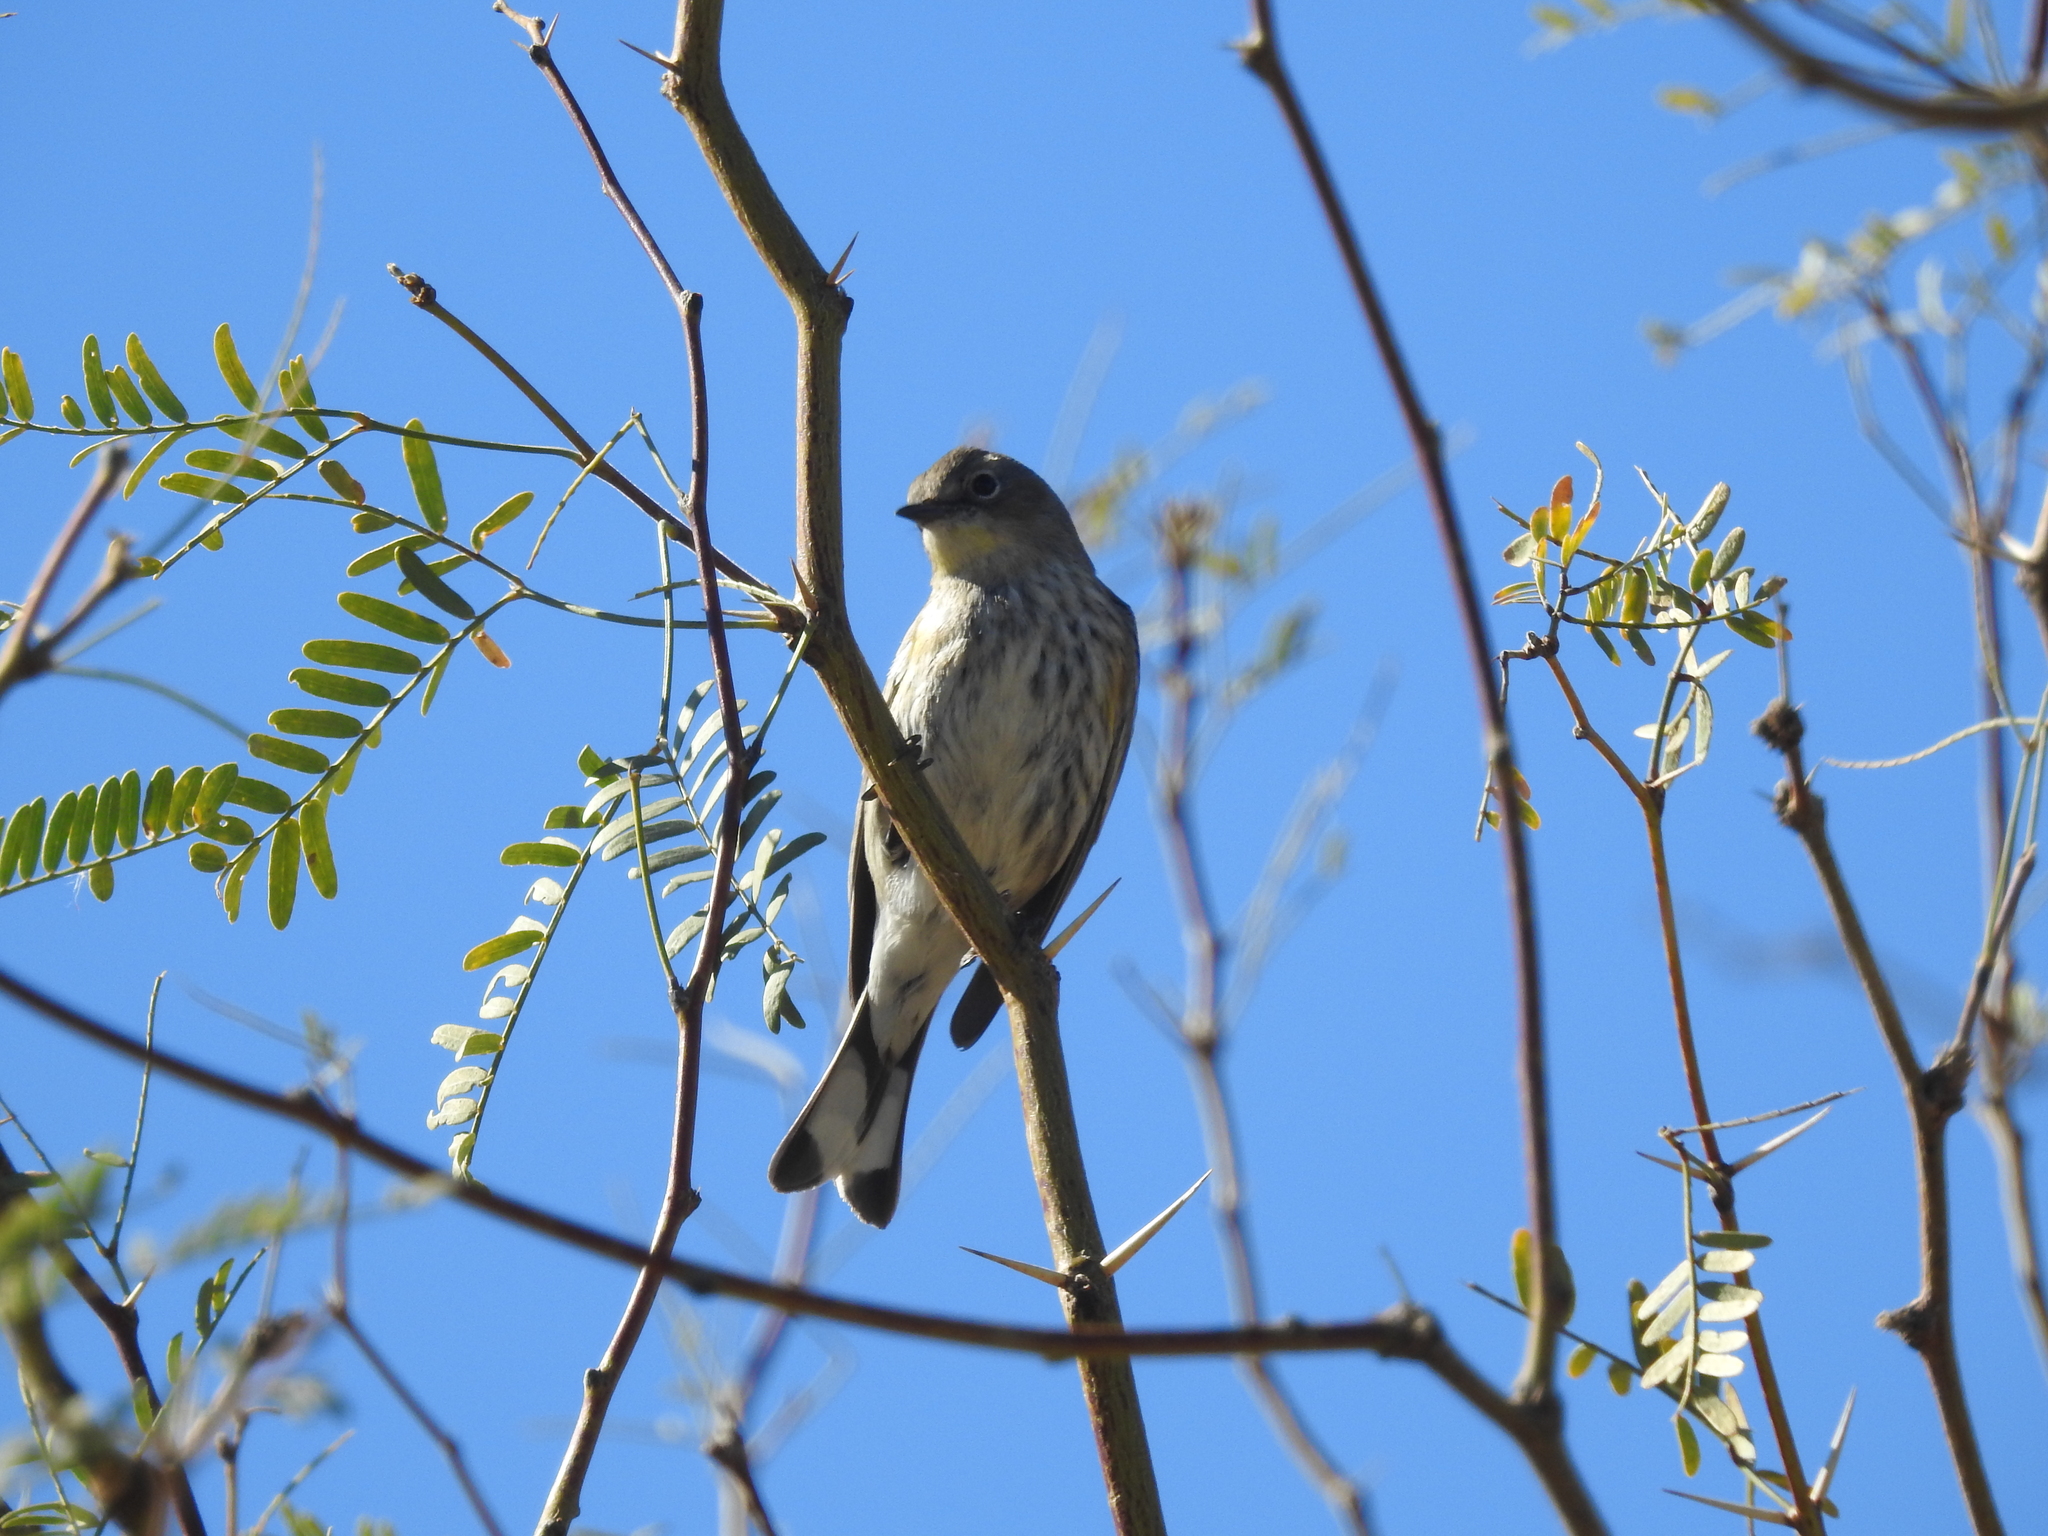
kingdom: Animalia
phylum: Chordata
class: Aves
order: Passeriformes
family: Parulidae
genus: Setophaga
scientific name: Setophaga coronata
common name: Myrtle warbler
